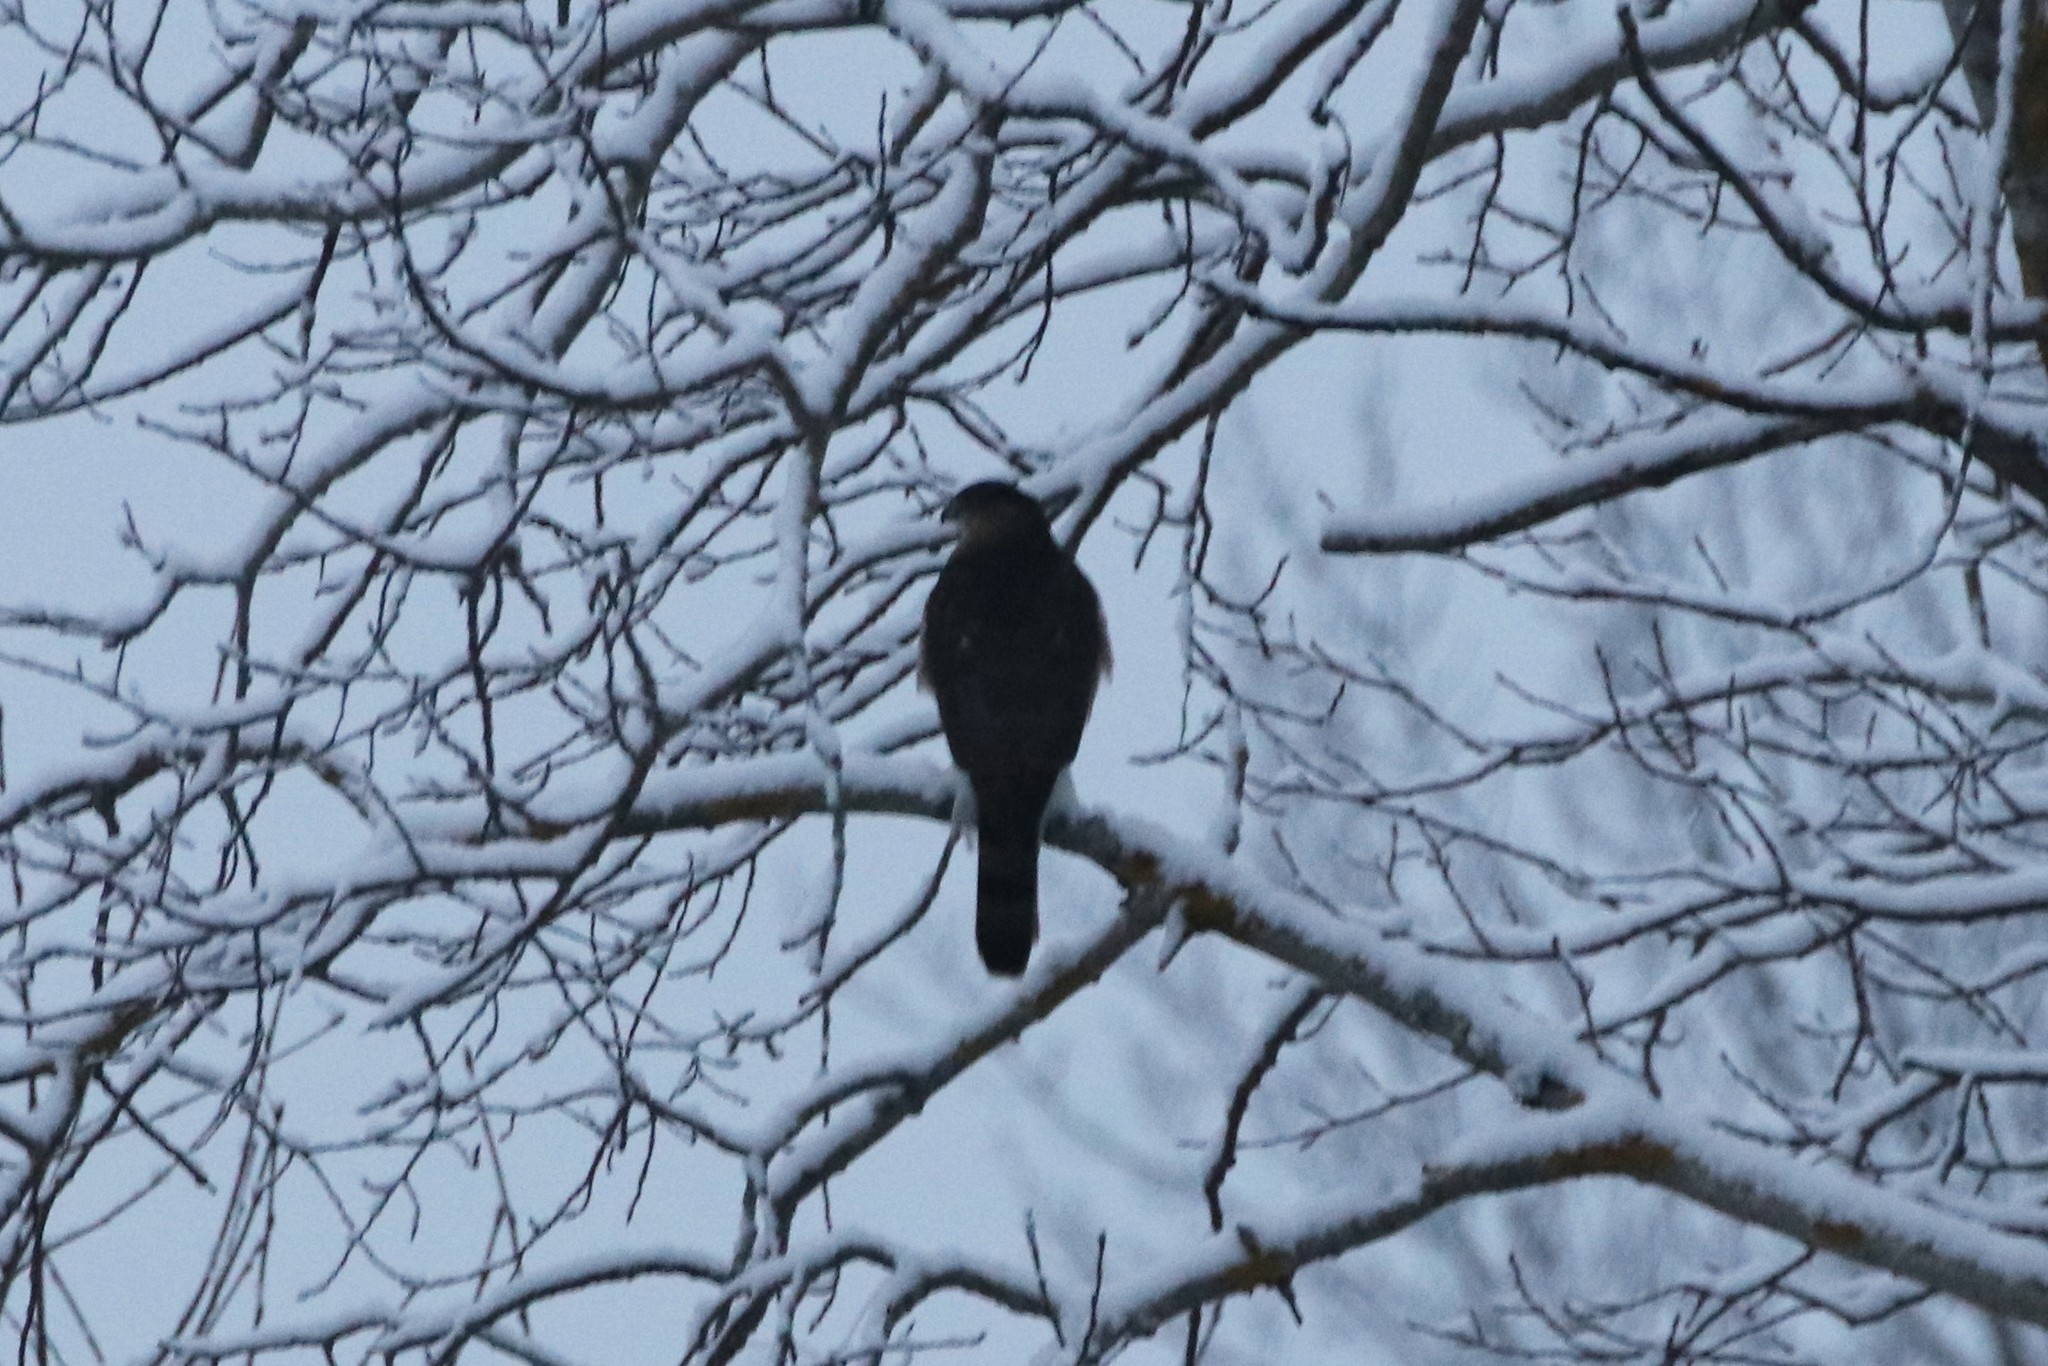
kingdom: Animalia
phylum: Chordata
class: Aves
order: Accipitriformes
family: Accipitridae
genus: Accipiter
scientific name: Accipiter cooperii
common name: Cooper's hawk
